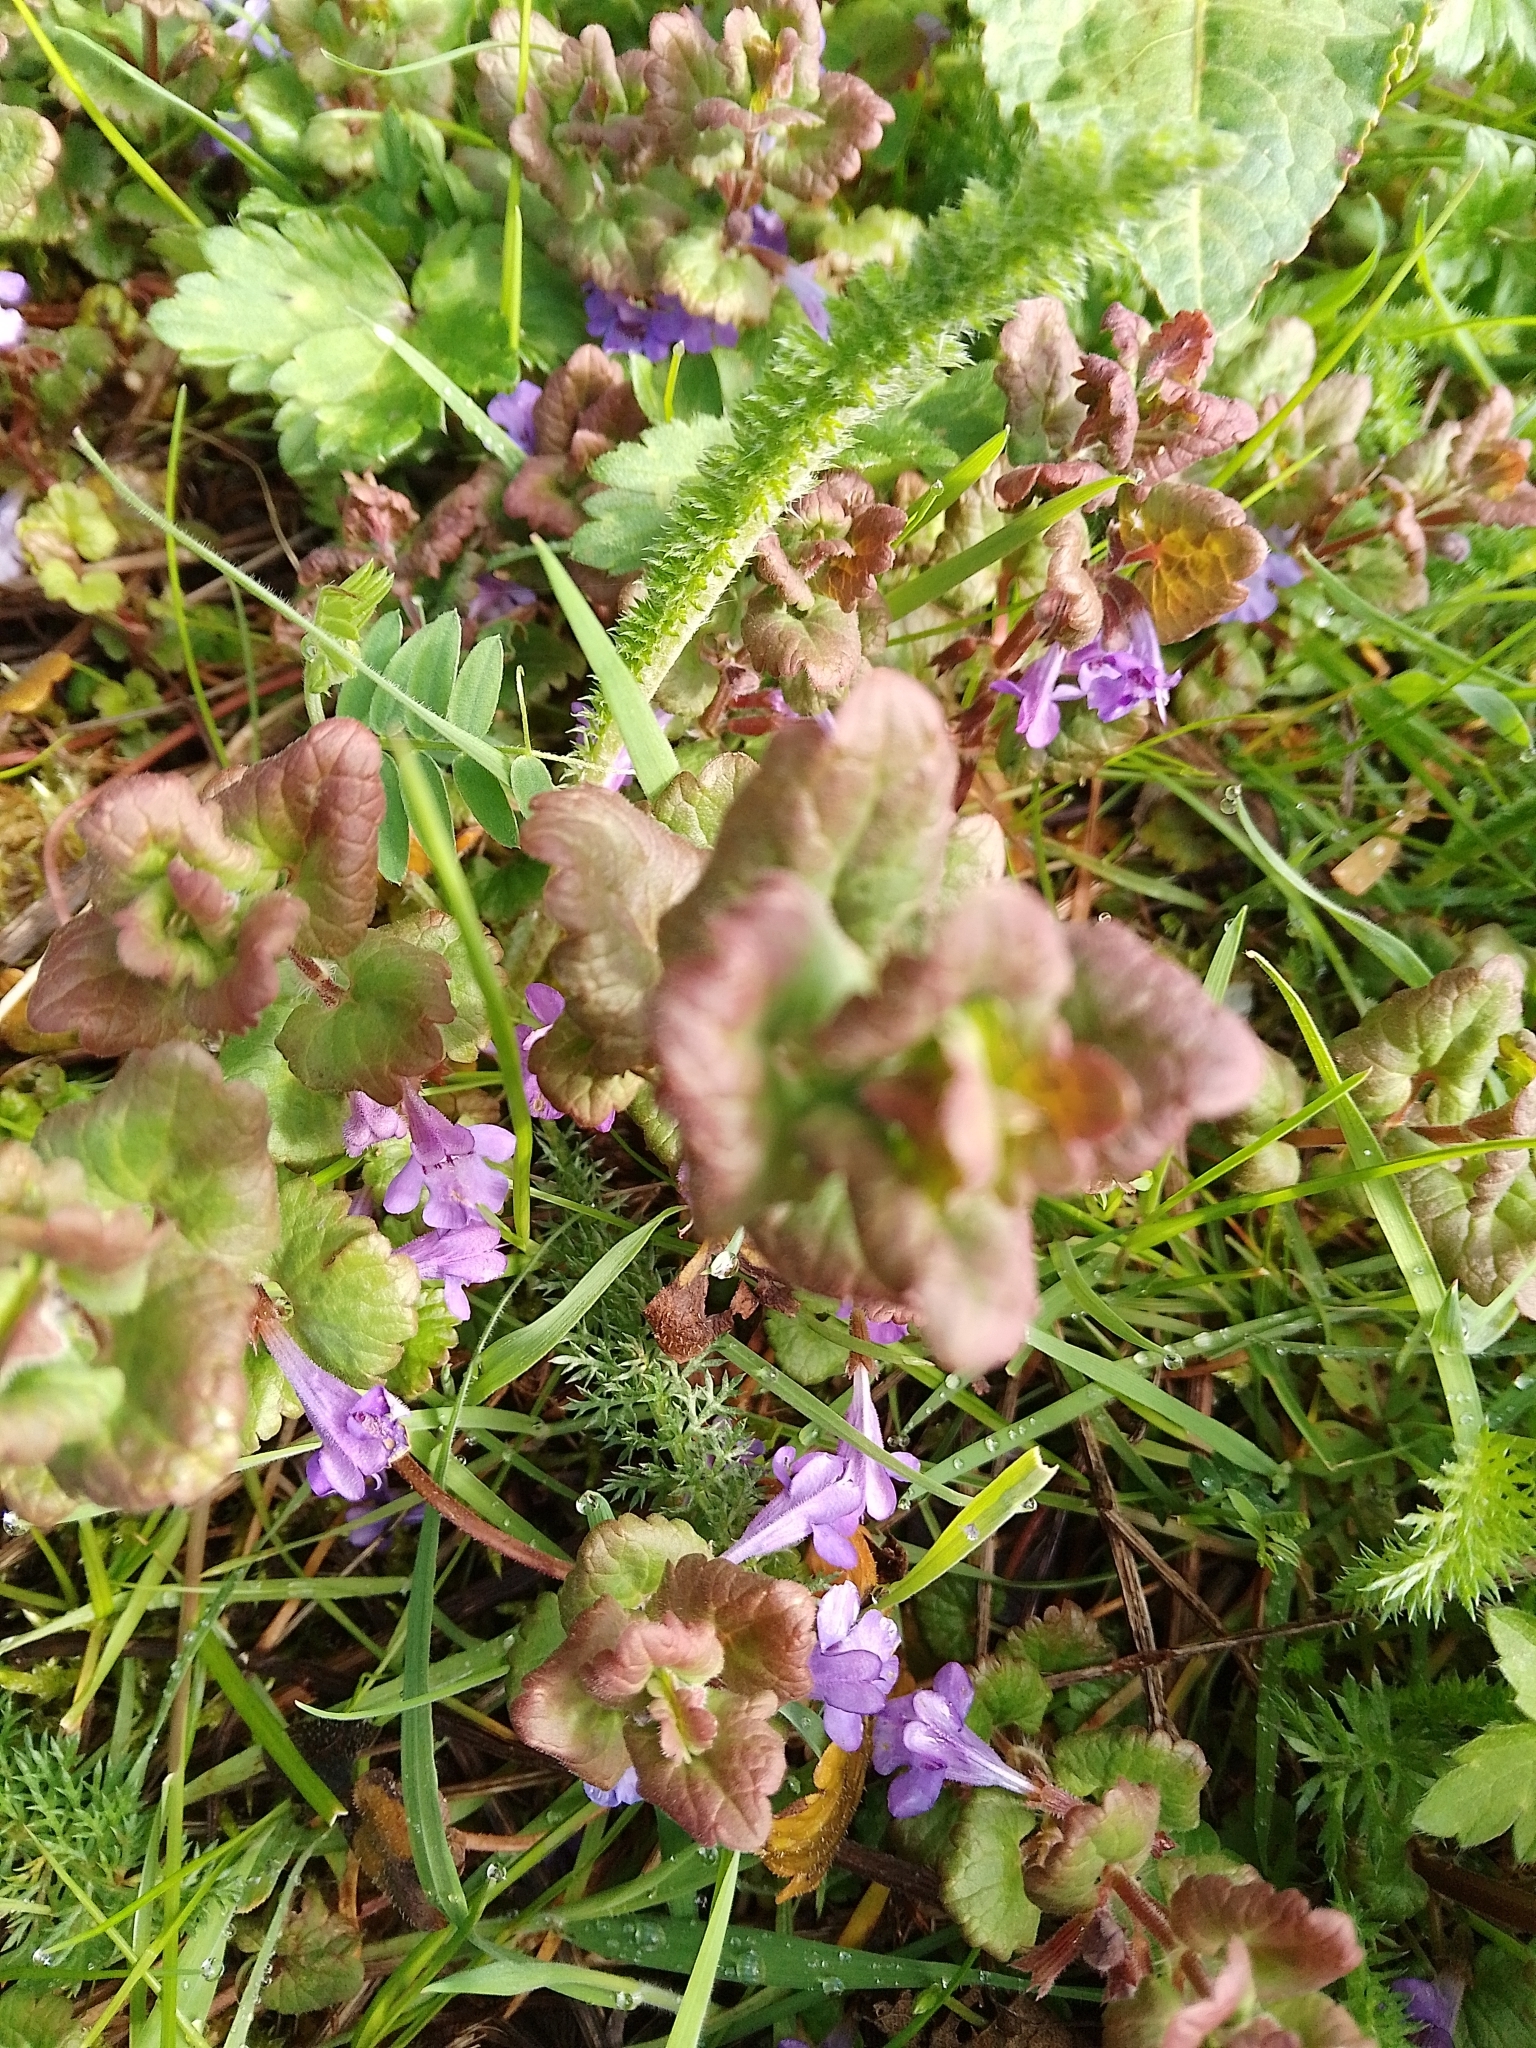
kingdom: Plantae
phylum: Tracheophyta
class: Magnoliopsida
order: Lamiales
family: Lamiaceae
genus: Glechoma
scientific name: Glechoma hederacea
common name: Ground ivy
